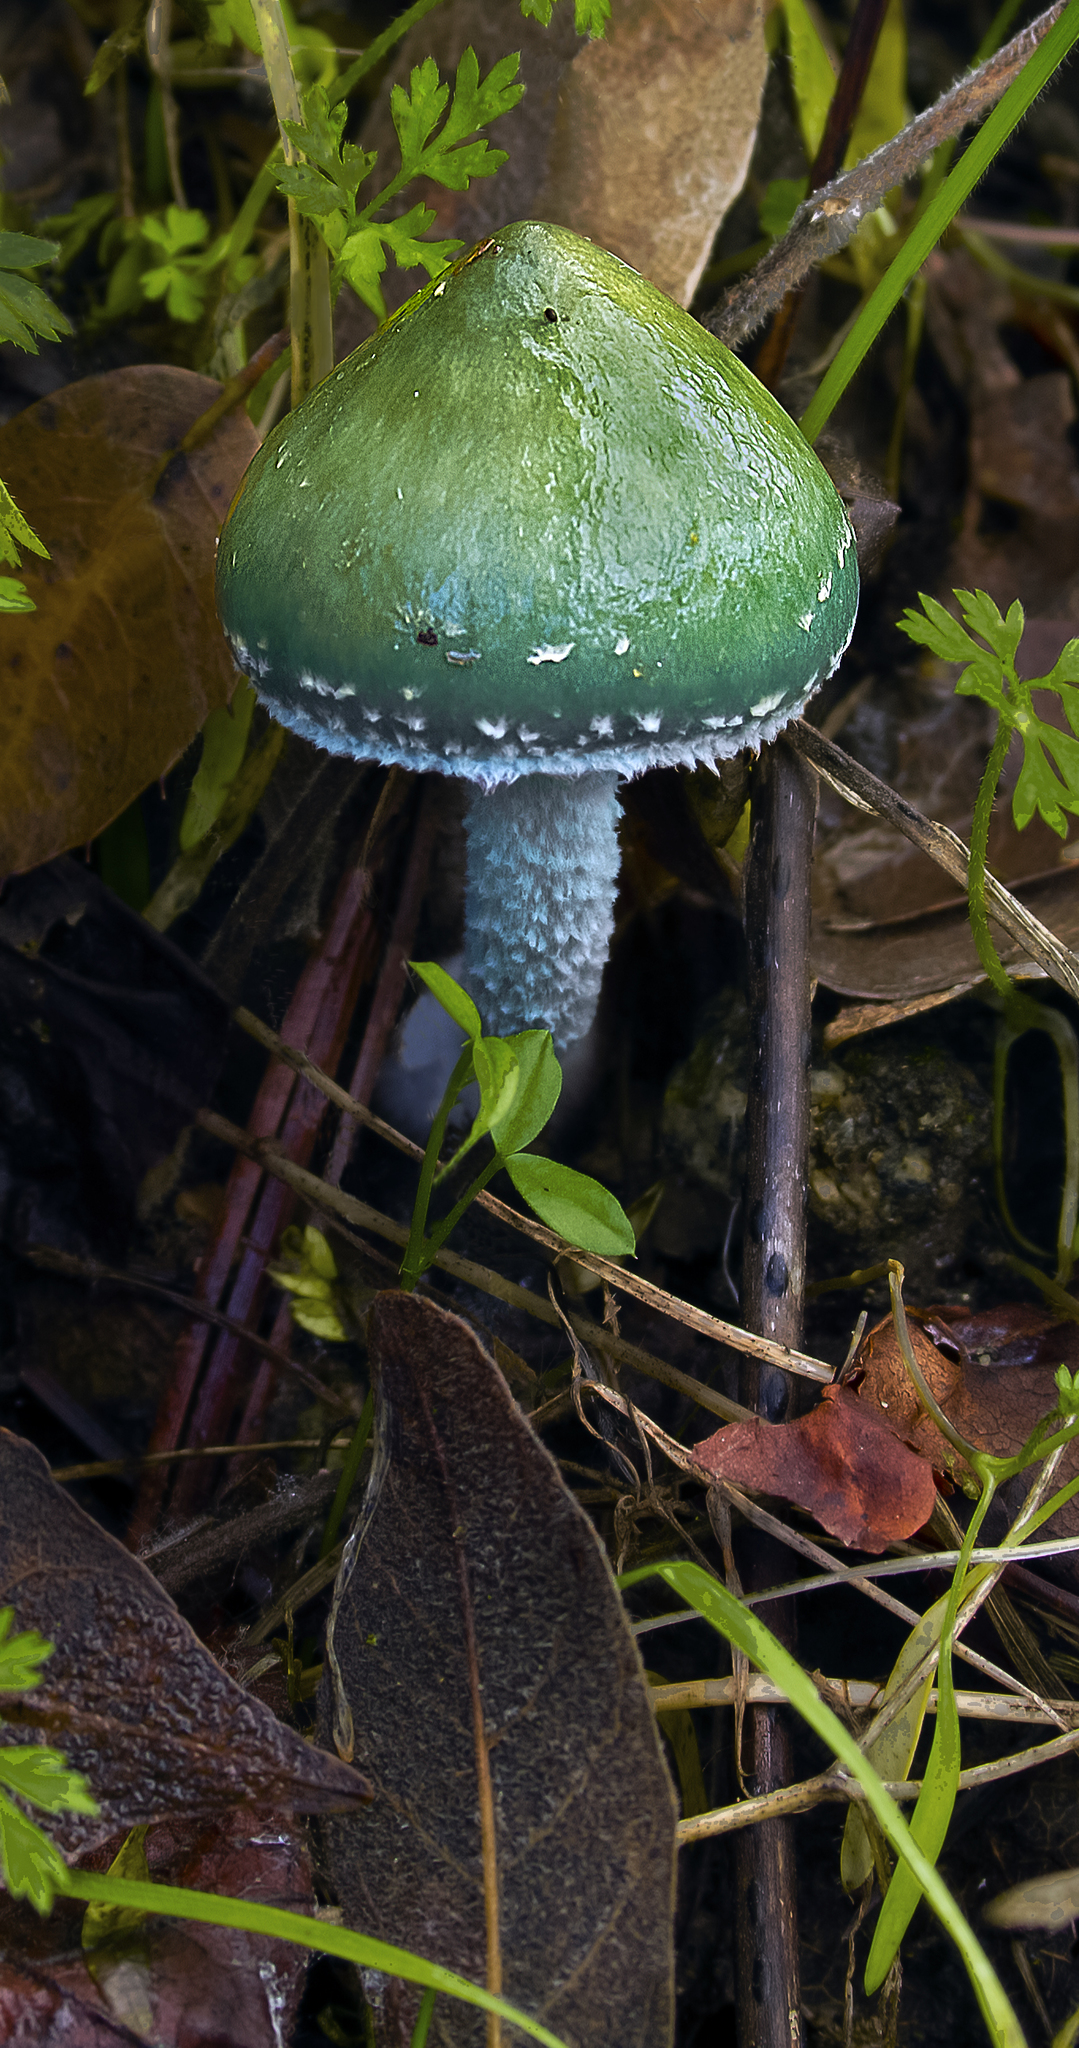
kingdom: Fungi
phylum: Basidiomycota
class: Agaricomycetes
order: Agaricales
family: Strophariaceae
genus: Stropharia
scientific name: Stropharia aeruginosa
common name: Verdigris roundhead
